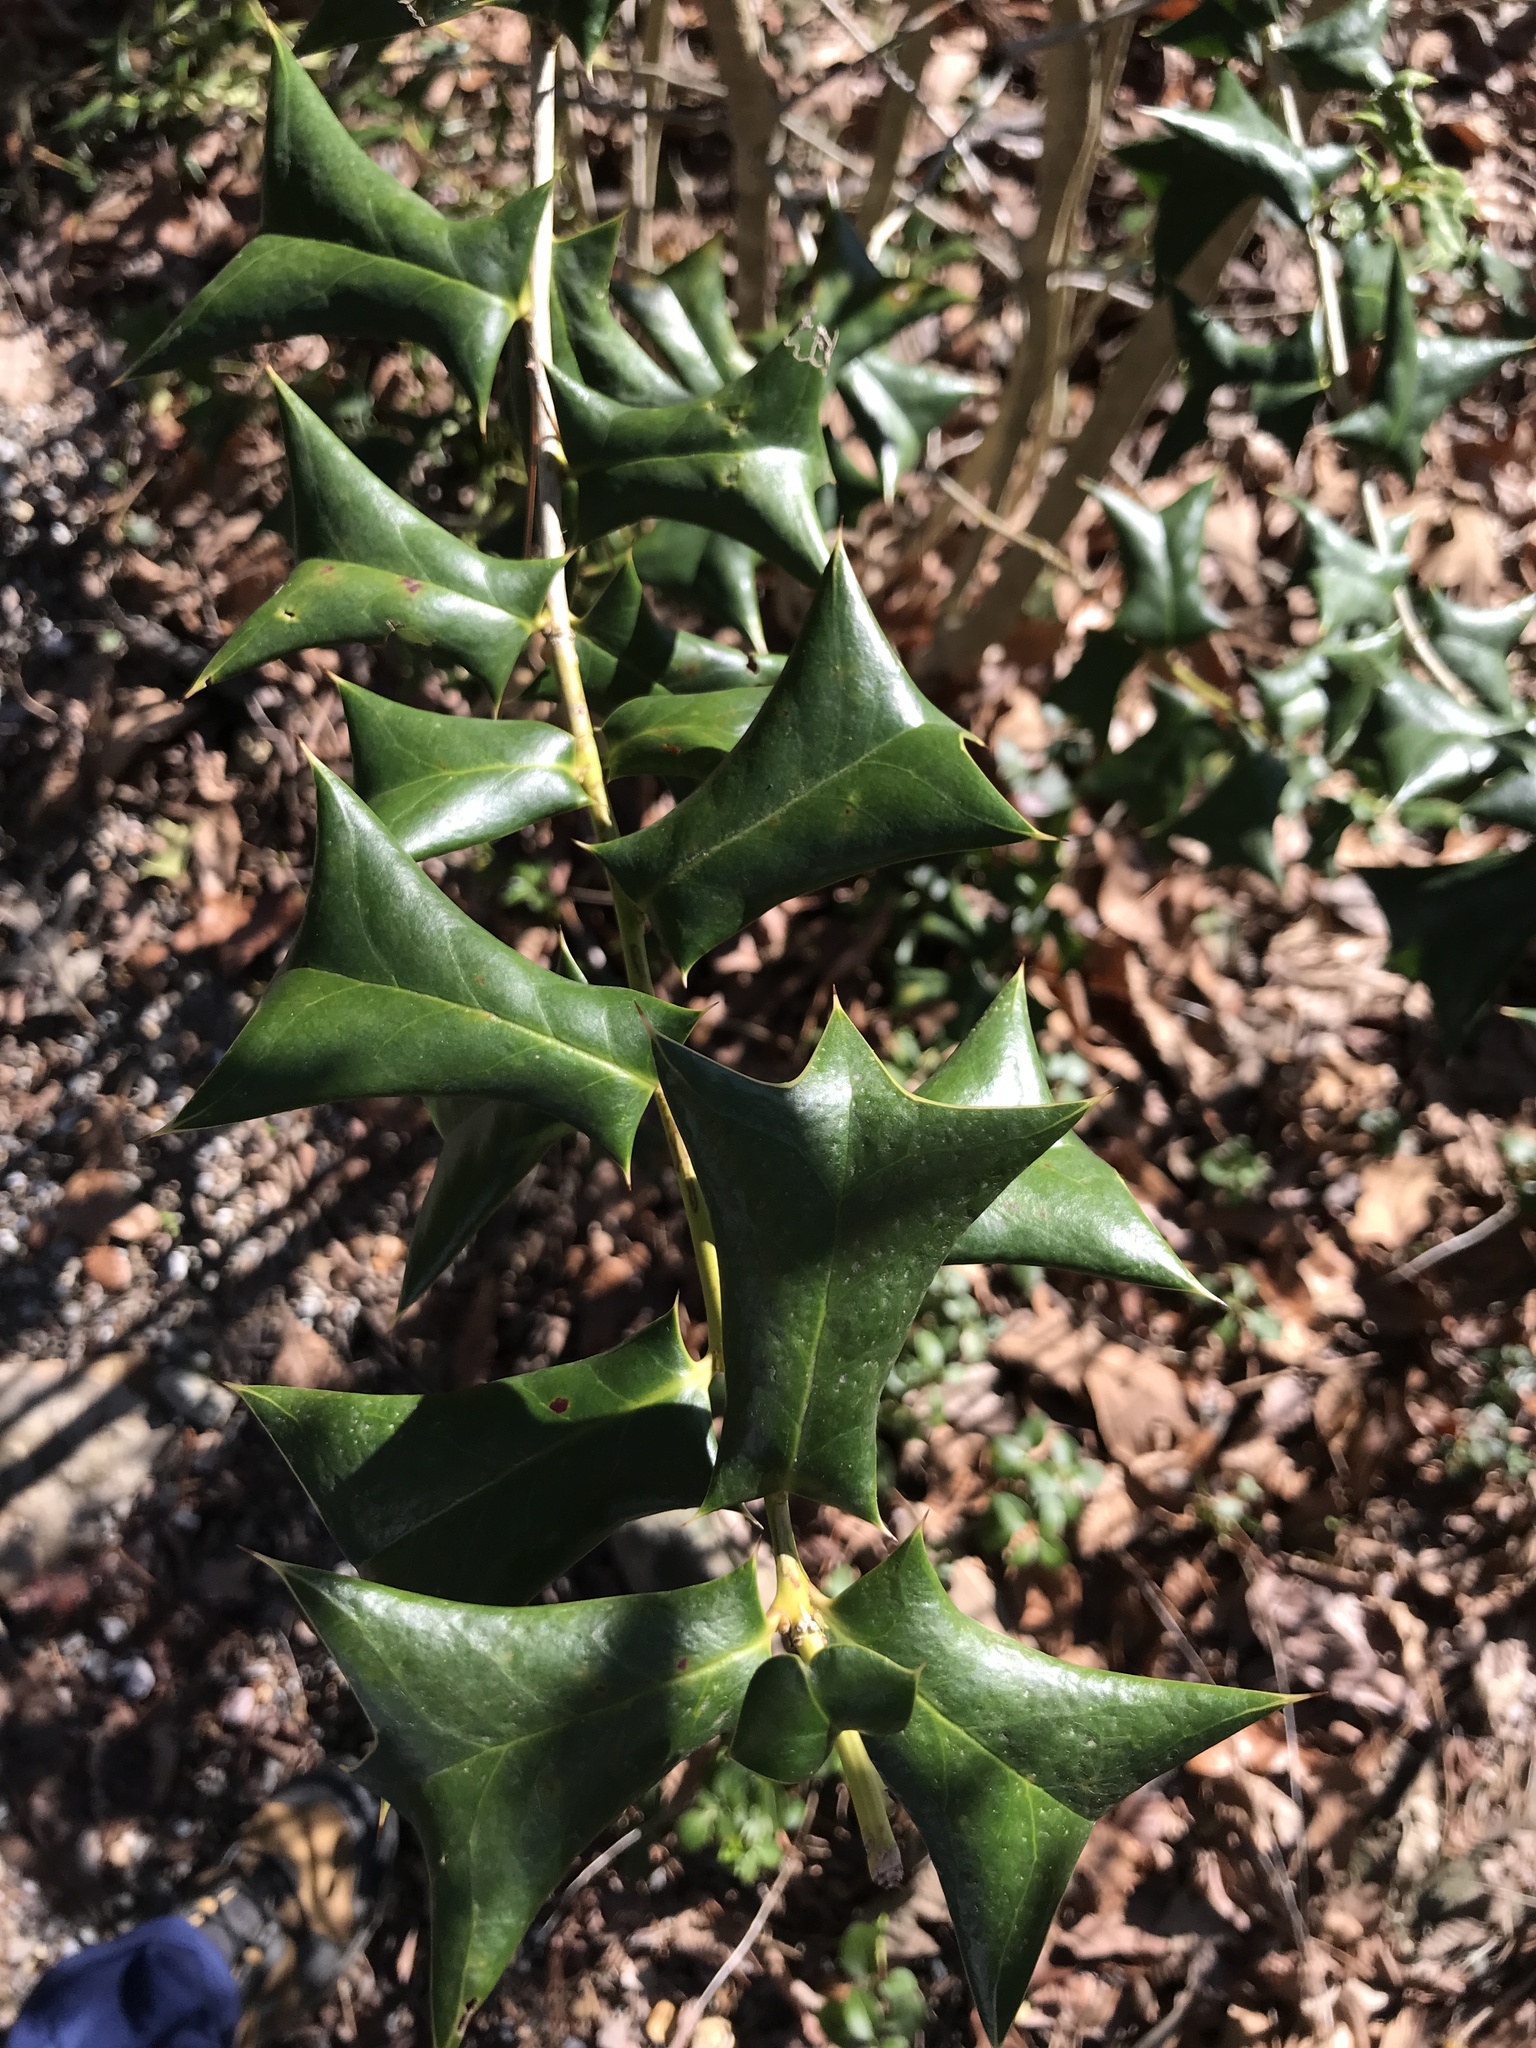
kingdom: Plantae
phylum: Tracheophyta
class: Magnoliopsida
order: Aquifoliales
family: Aquifoliaceae
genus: Ilex
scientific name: Ilex cornuta
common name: Chinese holly
